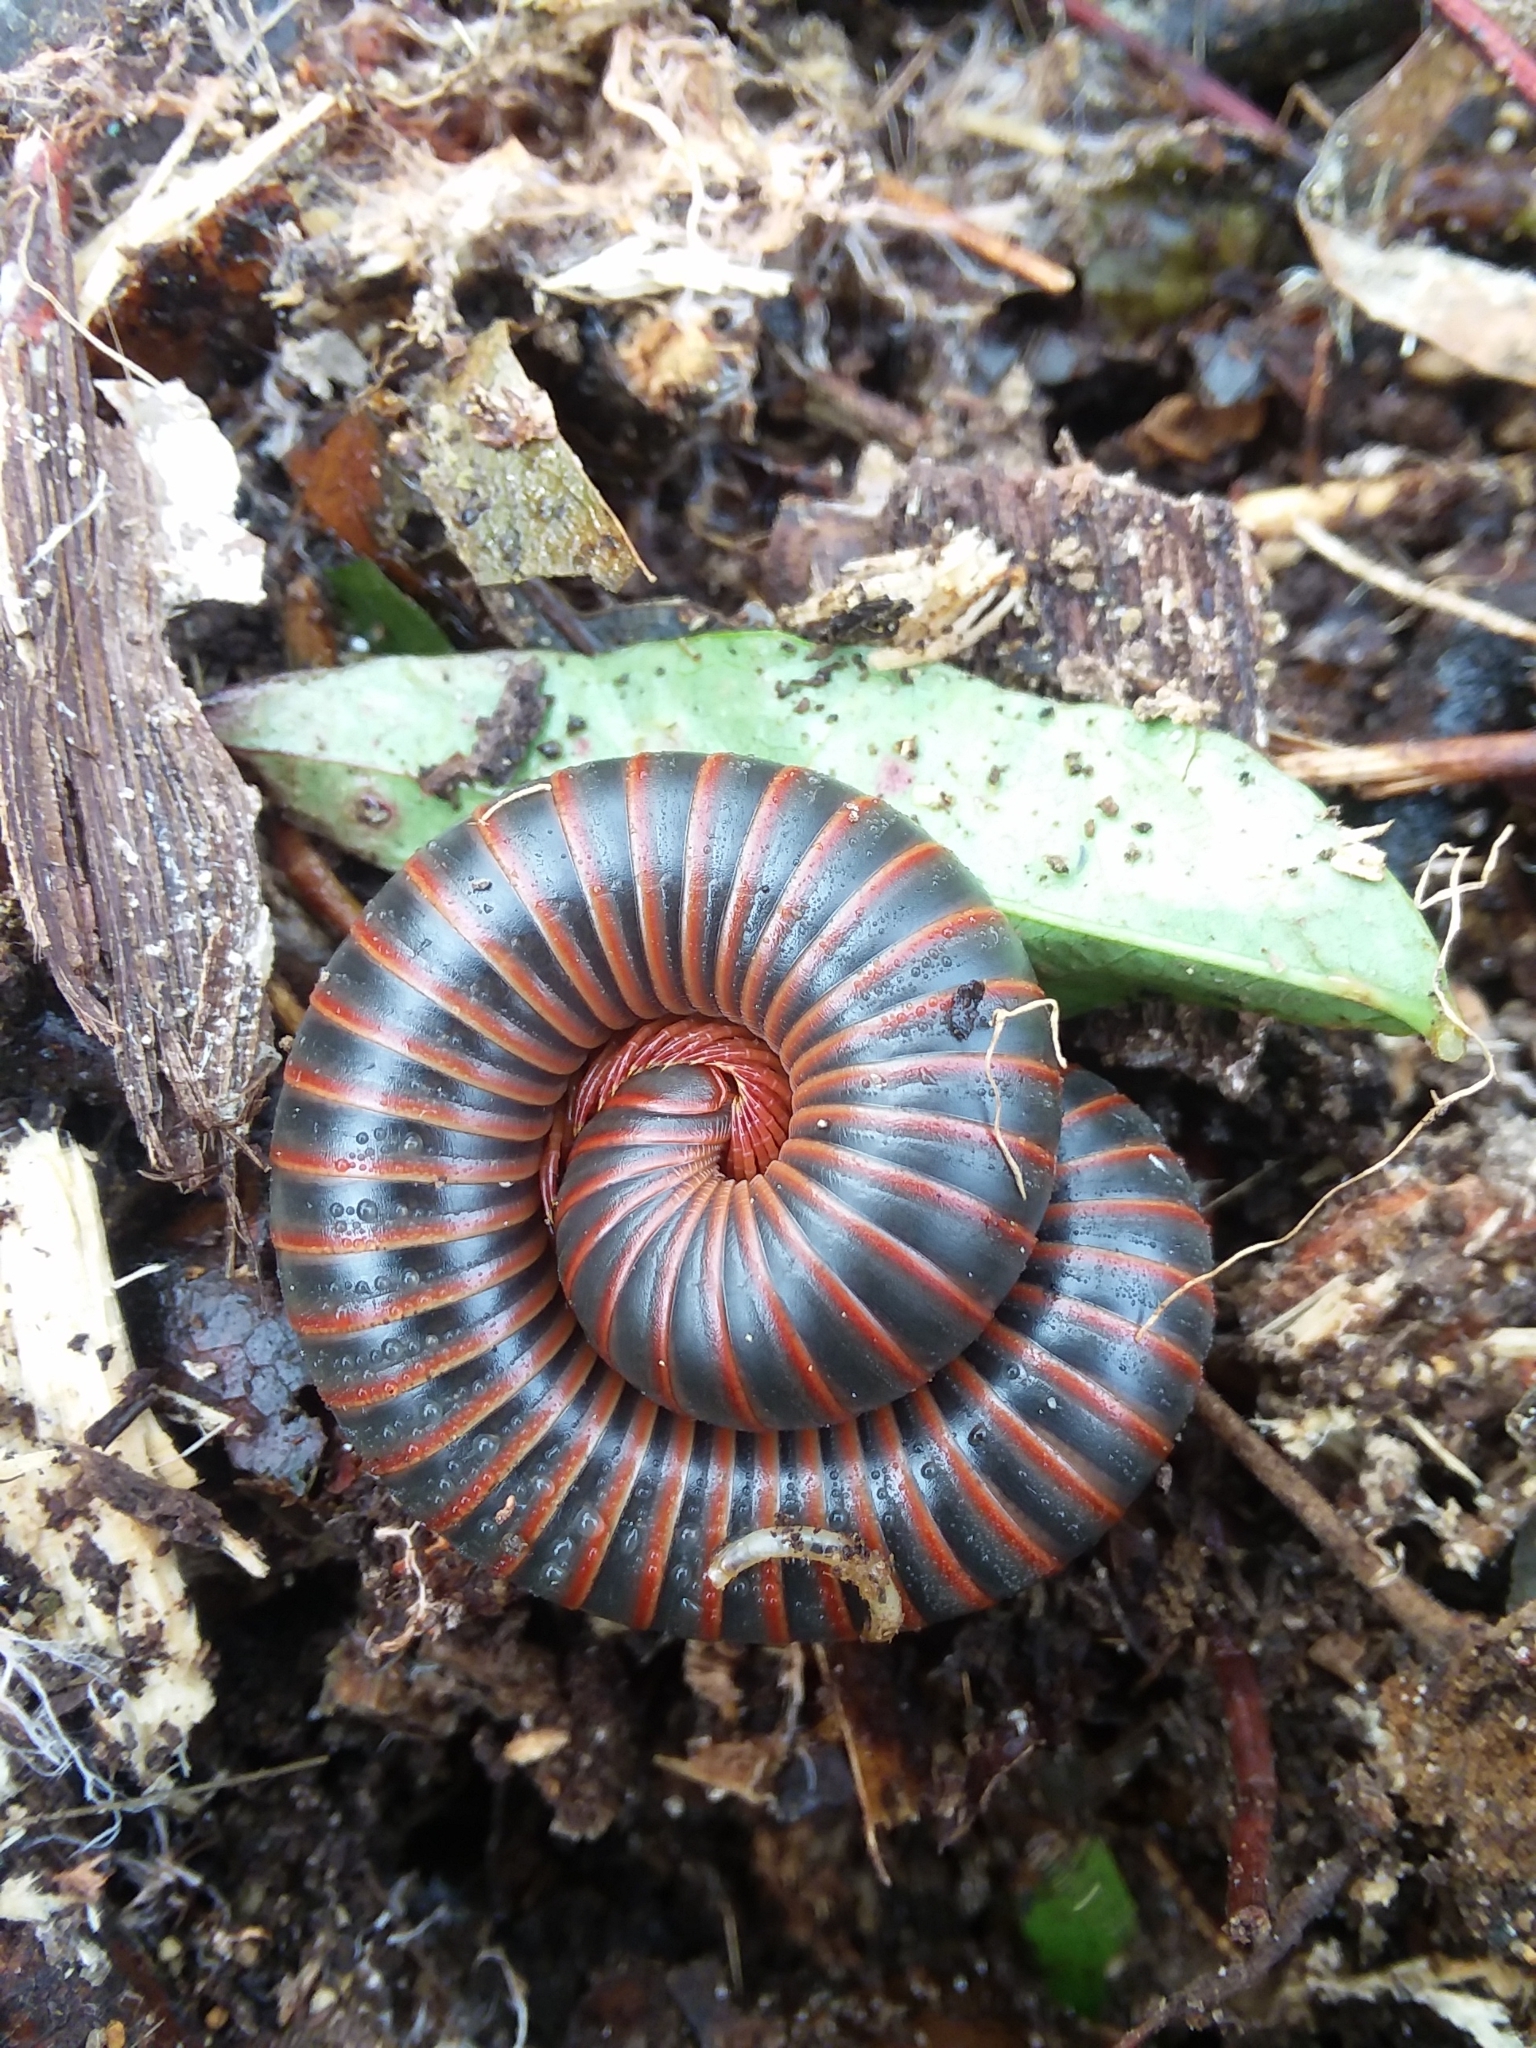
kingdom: Animalia
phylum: Arthropoda
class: Diplopoda
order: Spirobolida
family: Spirobolidae
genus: Narceus
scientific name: Narceus
